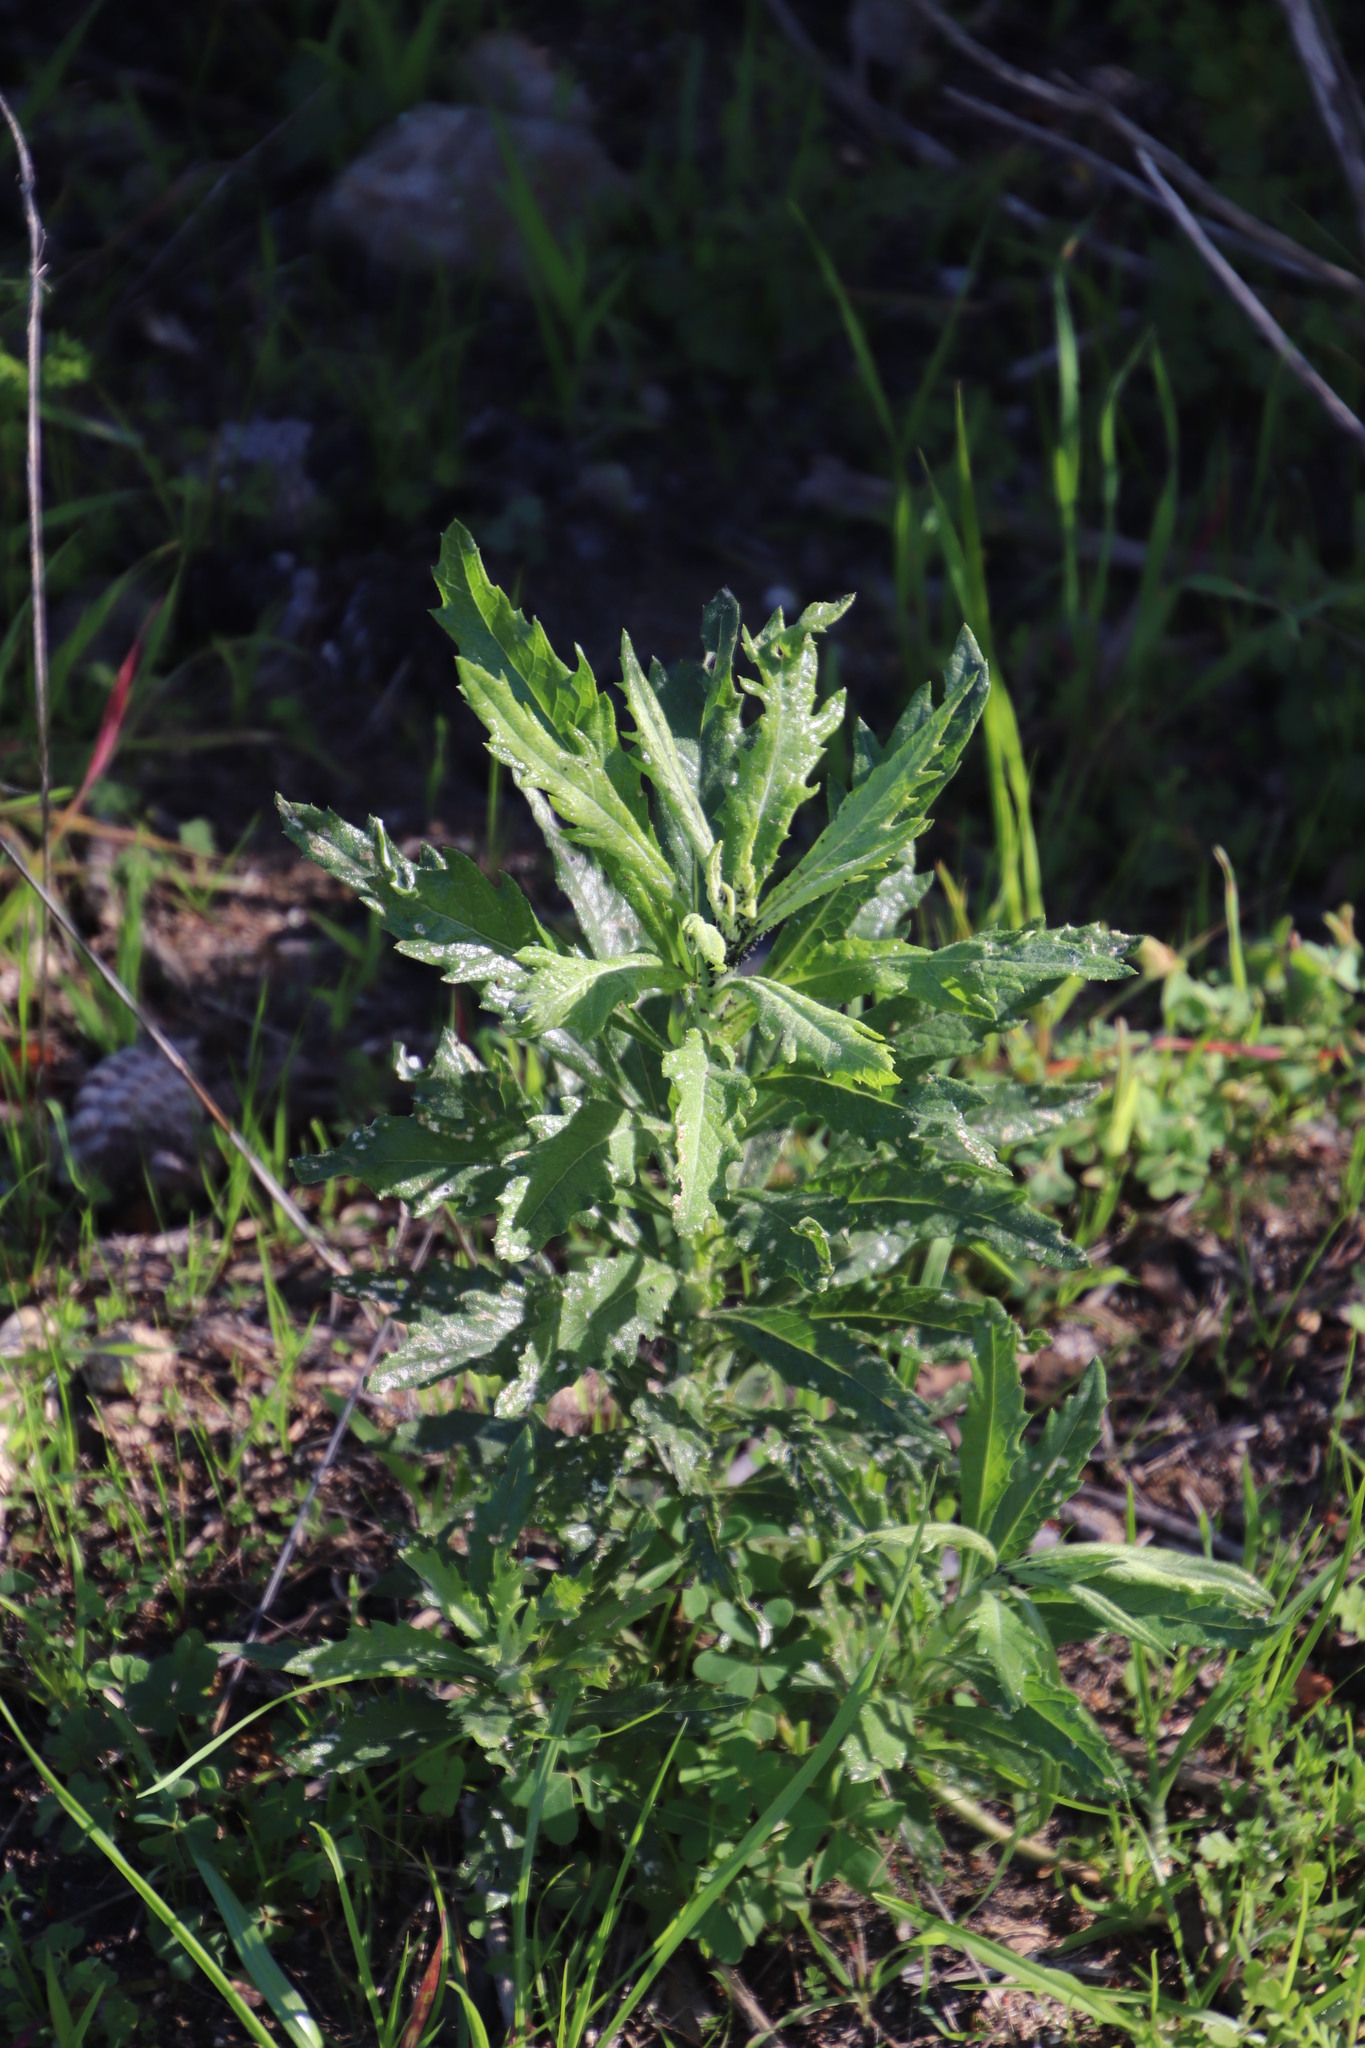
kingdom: Plantae
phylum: Tracheophyta
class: Magnoliopsida
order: Asterales
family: Asteraceae
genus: Senecio
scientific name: Senecio pterophorus
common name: Shoddy ragwort
